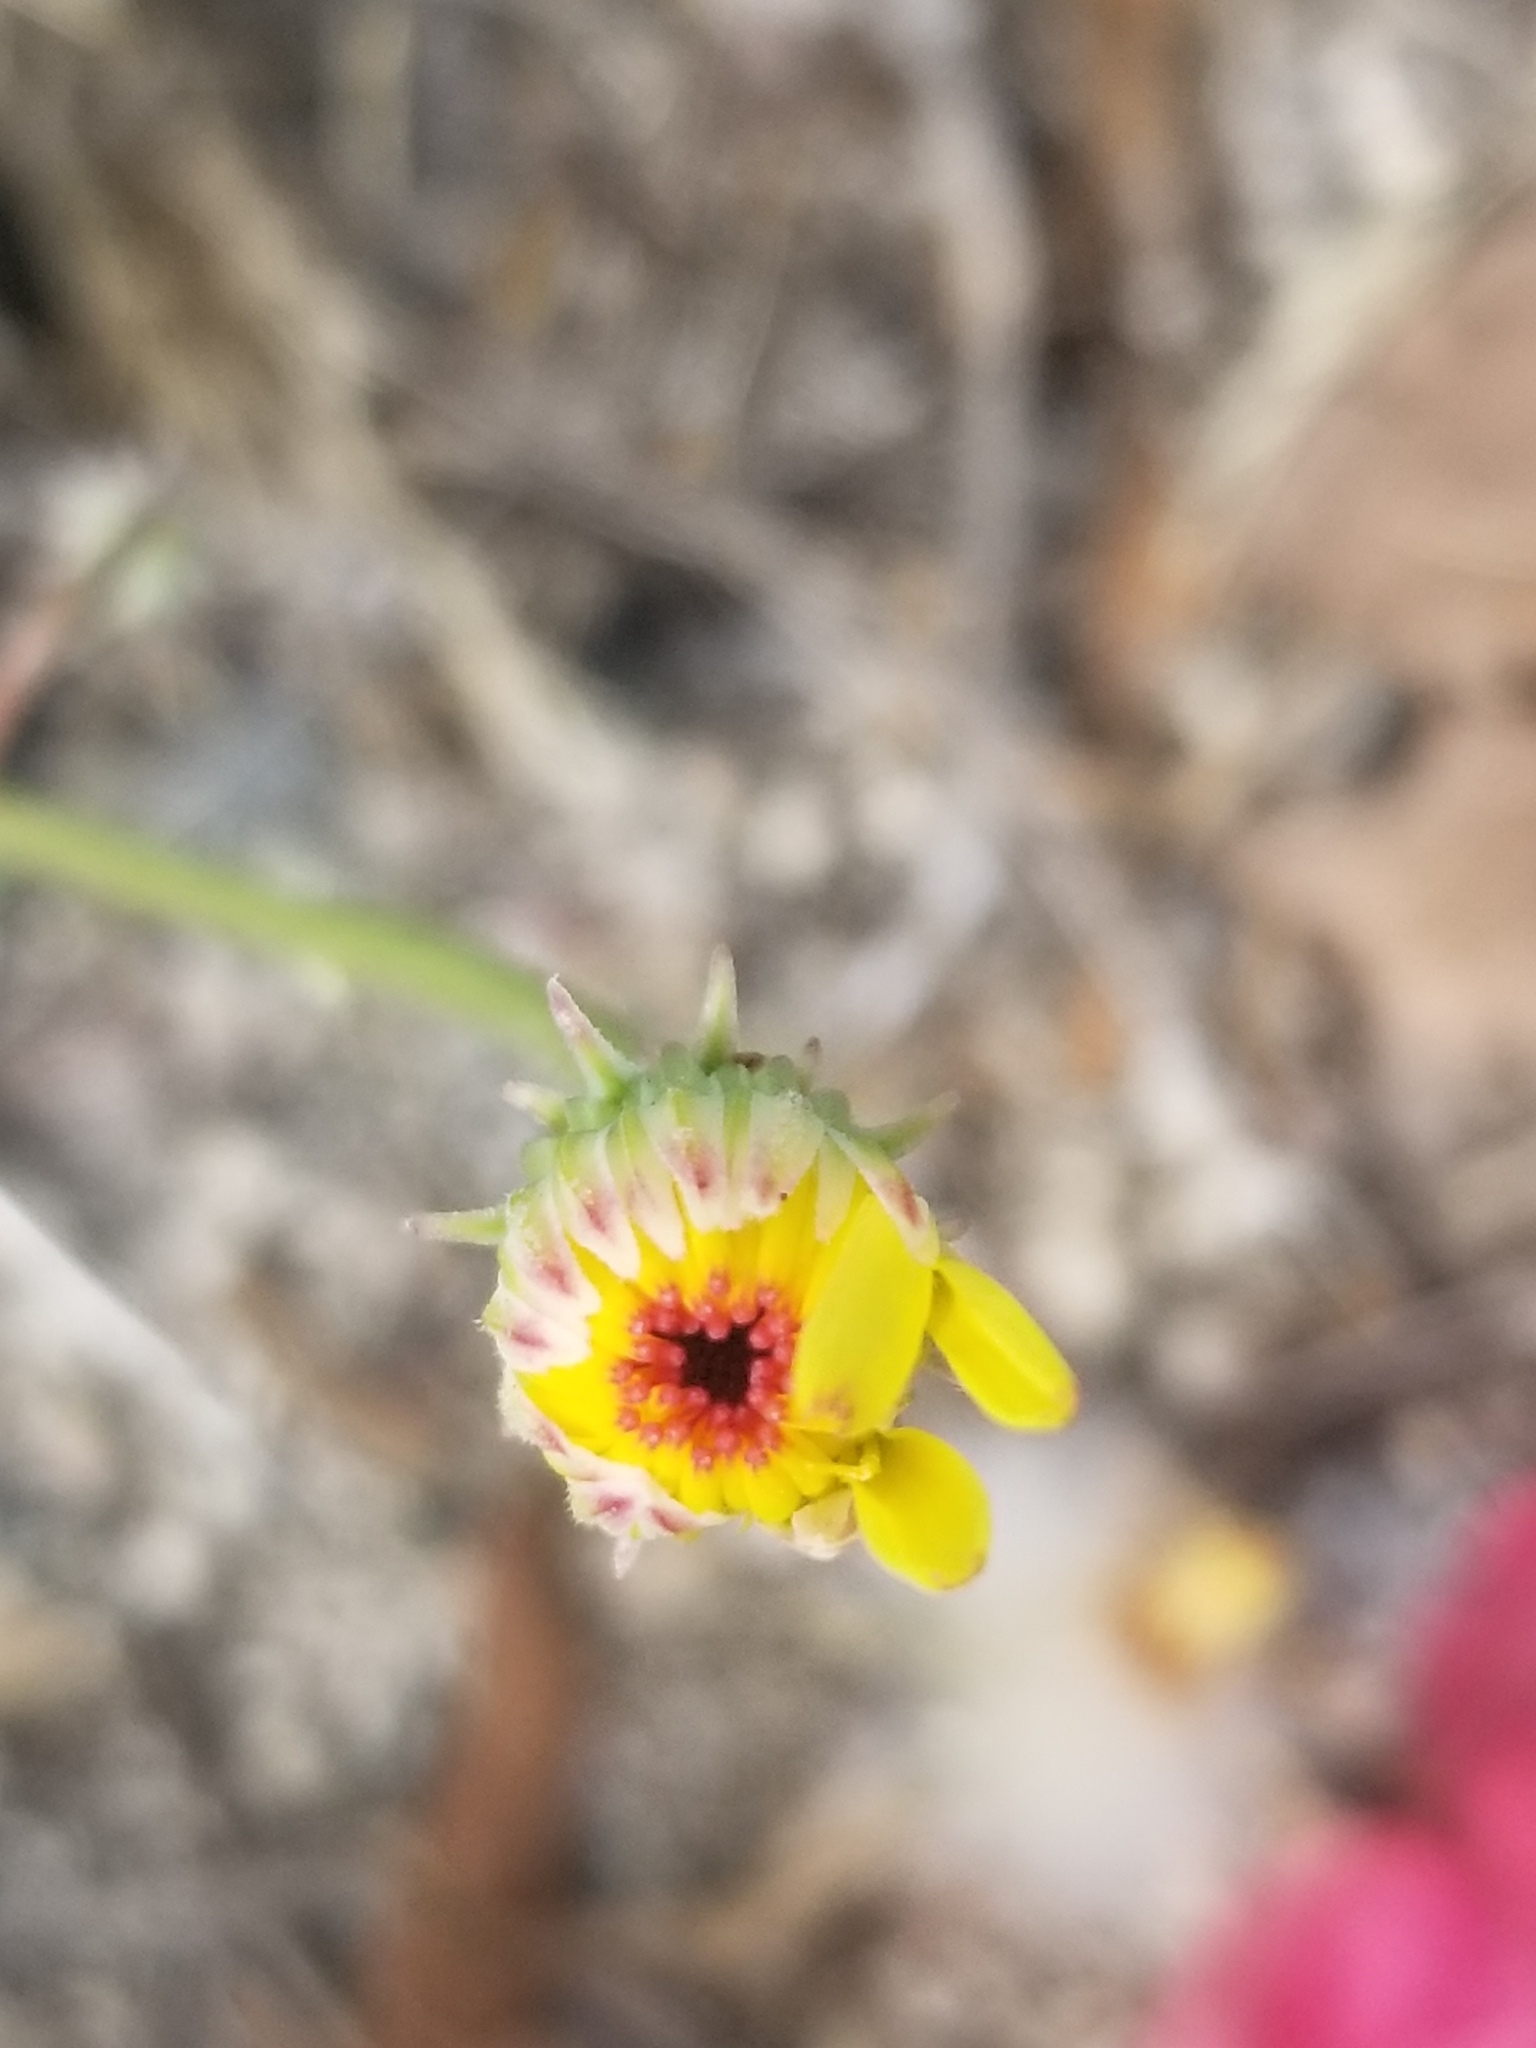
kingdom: Plantae
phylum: Tracheophyta
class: Magnoliopsida
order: Asterales
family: Asteraceae
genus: Malacothrix
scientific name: Malacothrix glabrata
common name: Smooth desert-dandelion
